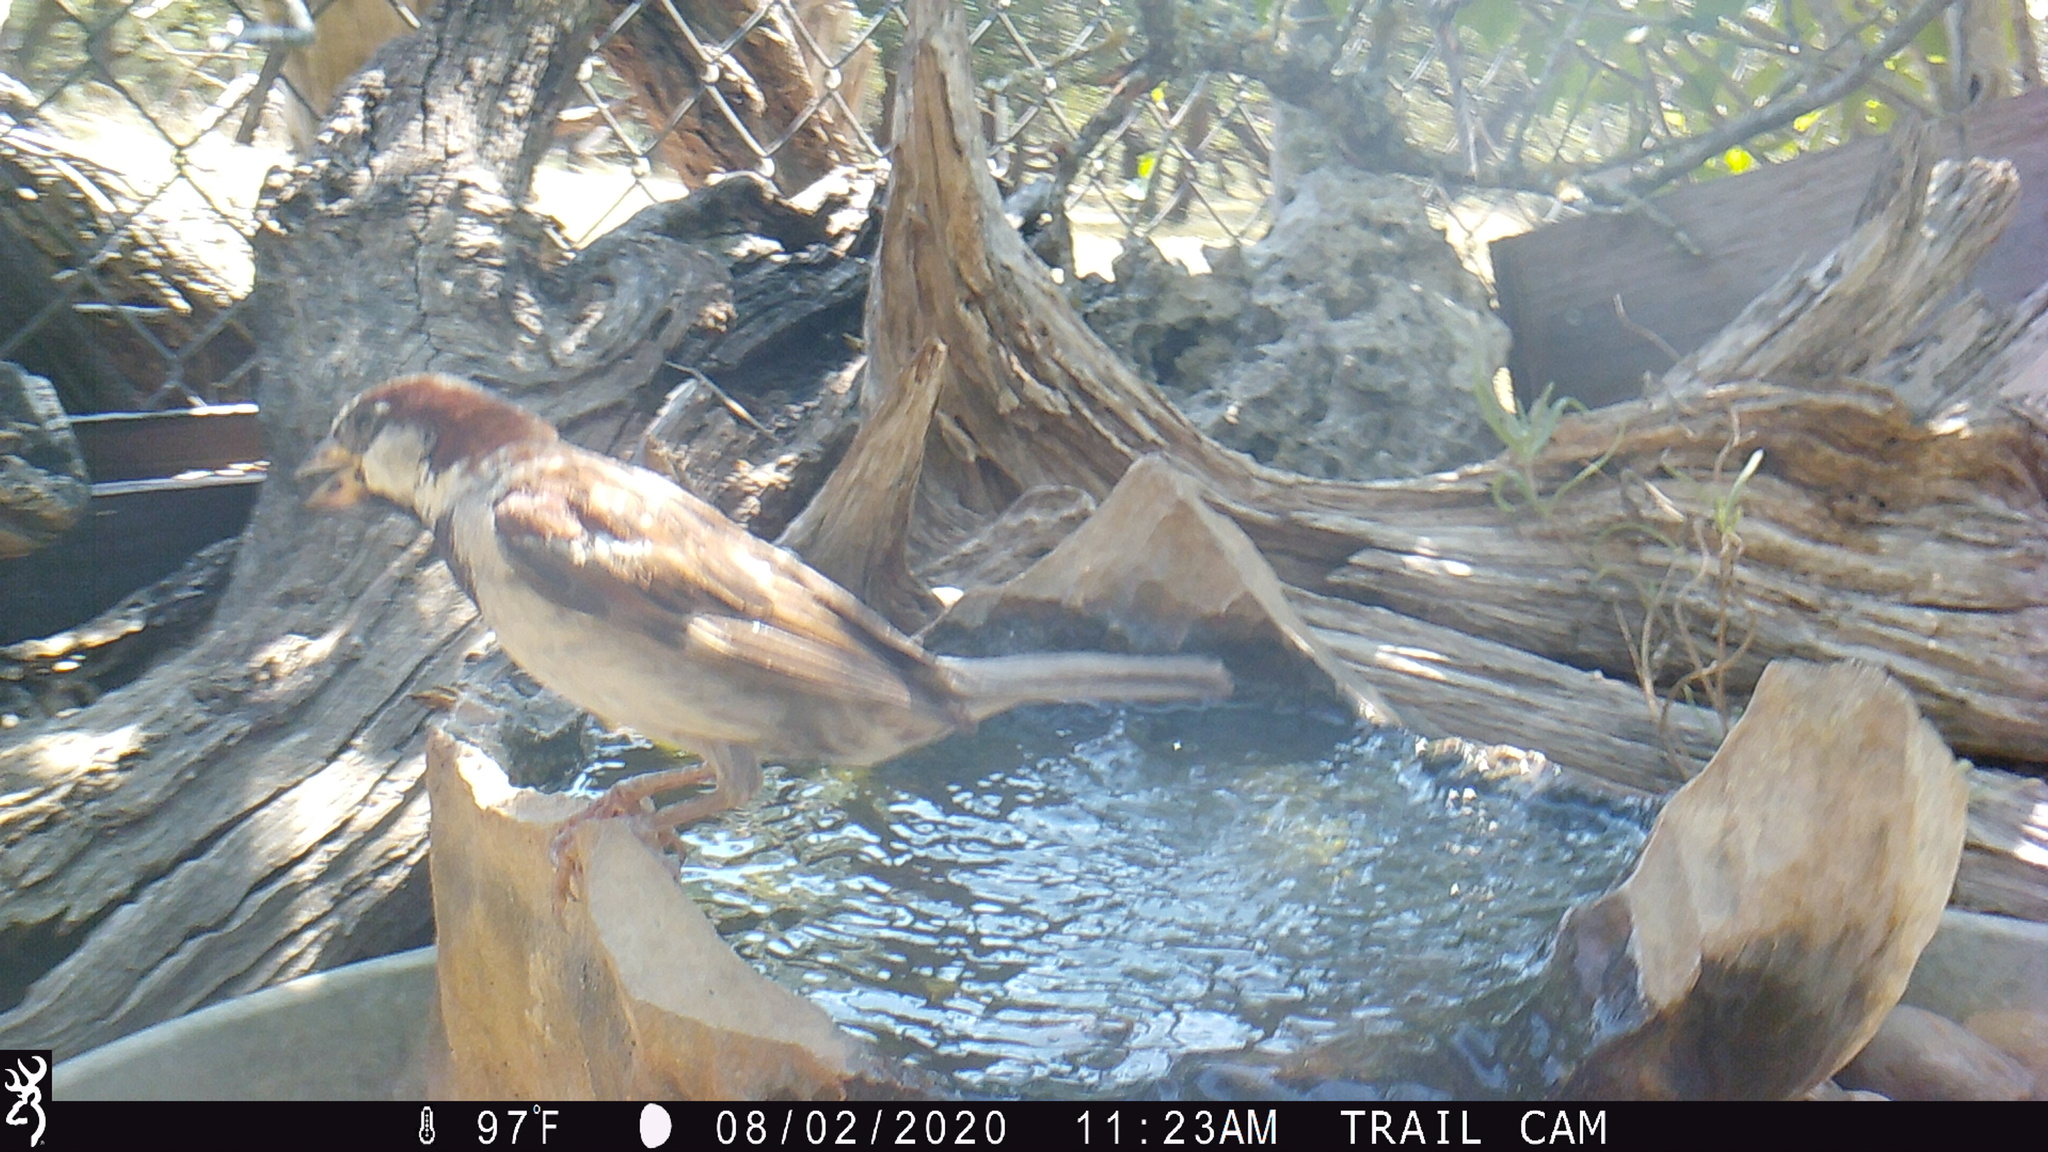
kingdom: Animalia
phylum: Chordata
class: Aves
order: Passeriformes
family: Passeridae
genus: Passer
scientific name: Passer domesticus
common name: House sparrow
